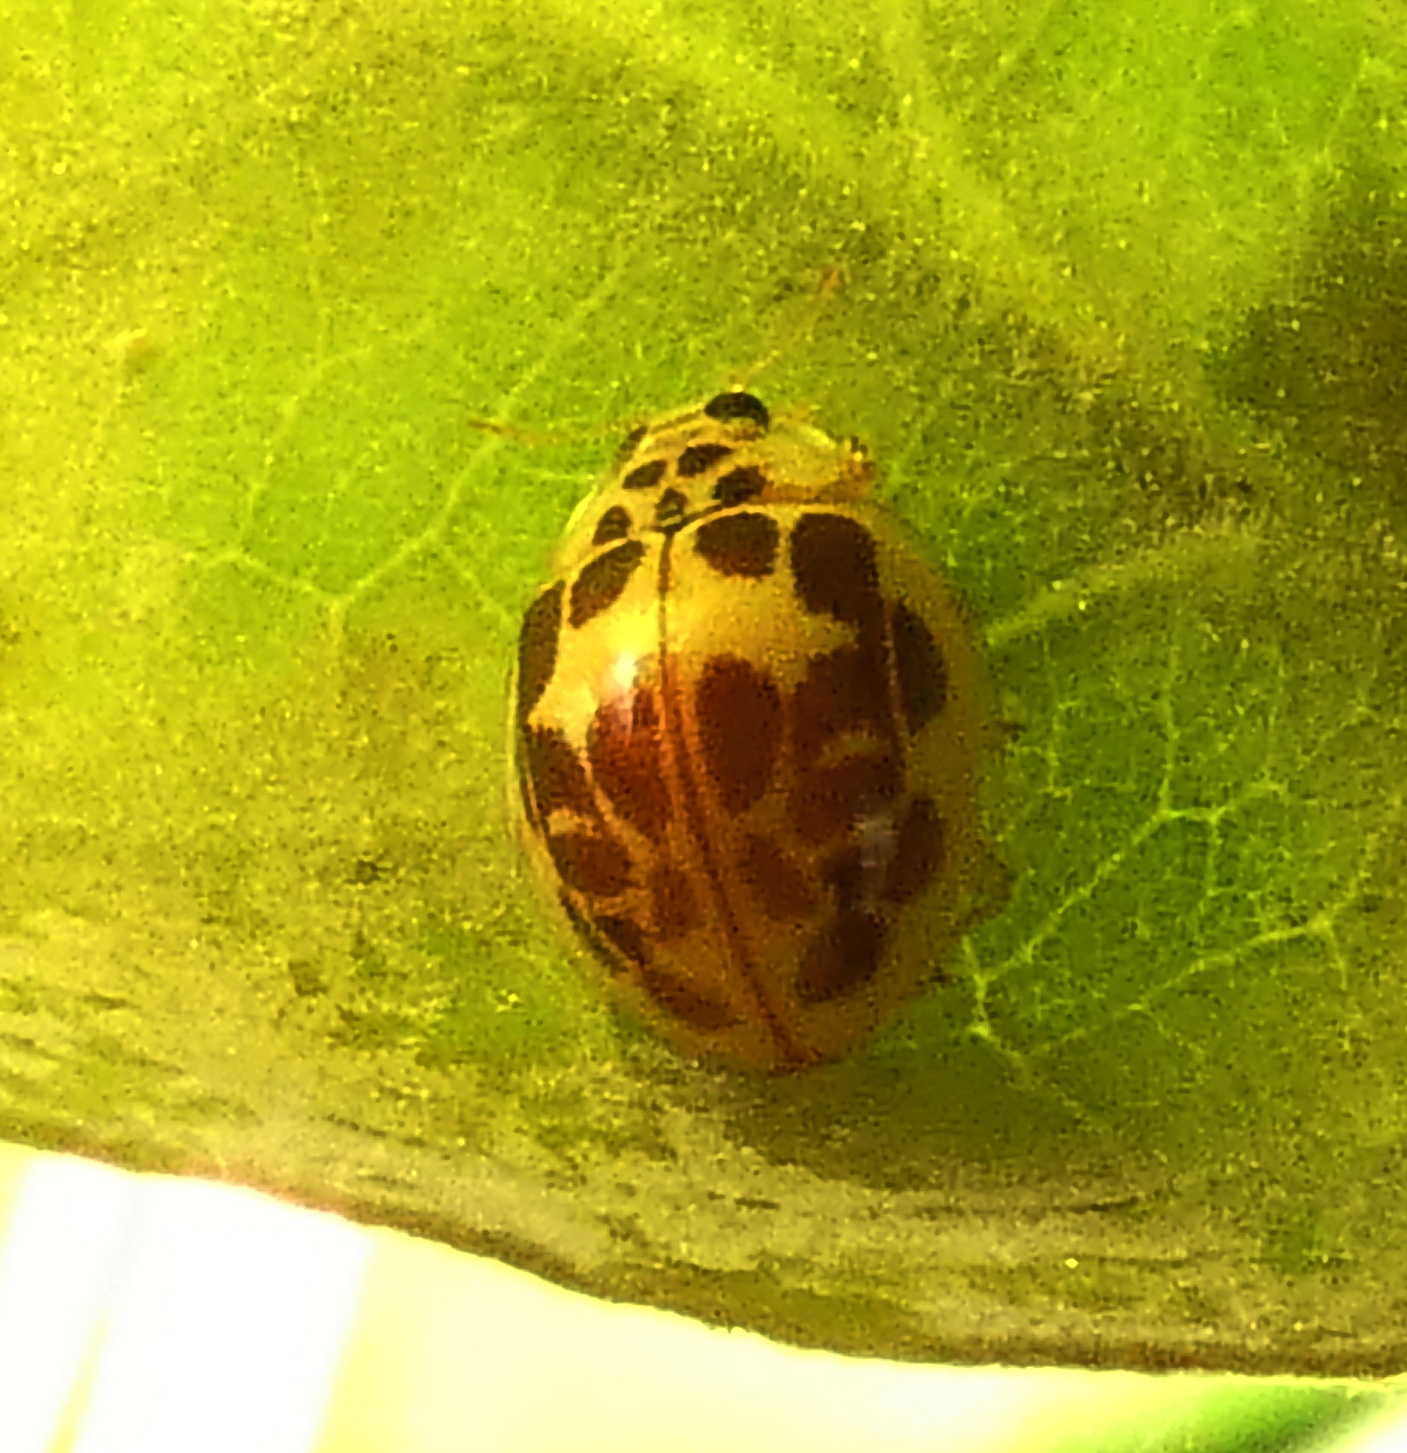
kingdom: Animalia
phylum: Arthropoda
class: Insecta
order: Coleoptera
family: Coccinellidae
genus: Psyllobora
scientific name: Psyllobora confluens
